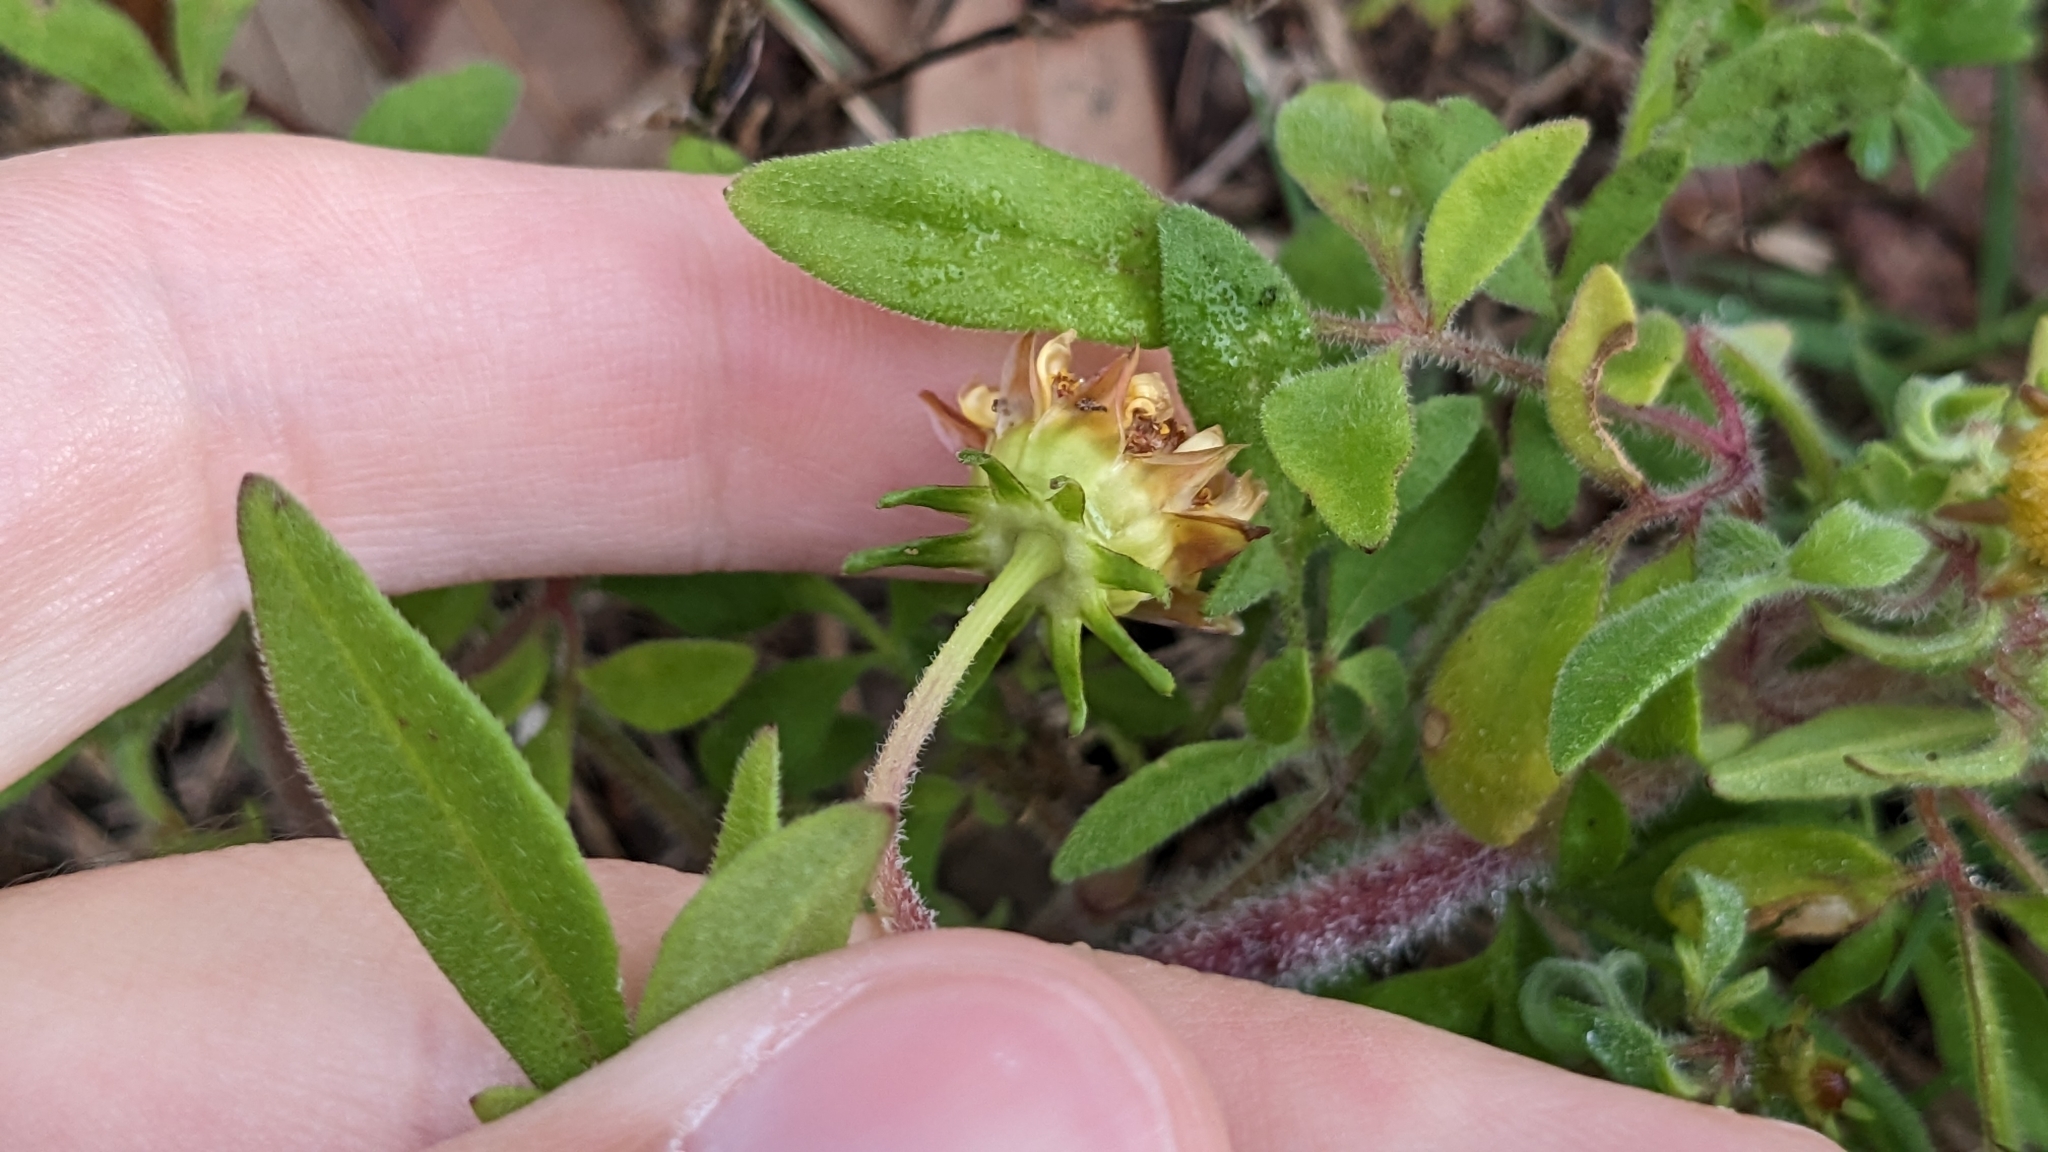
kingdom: Plantae
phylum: Tracheophyta
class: Magnoliopsida
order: Asterales
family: Asteraceae
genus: Coreopsis
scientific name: Coreopsis nuecensis
